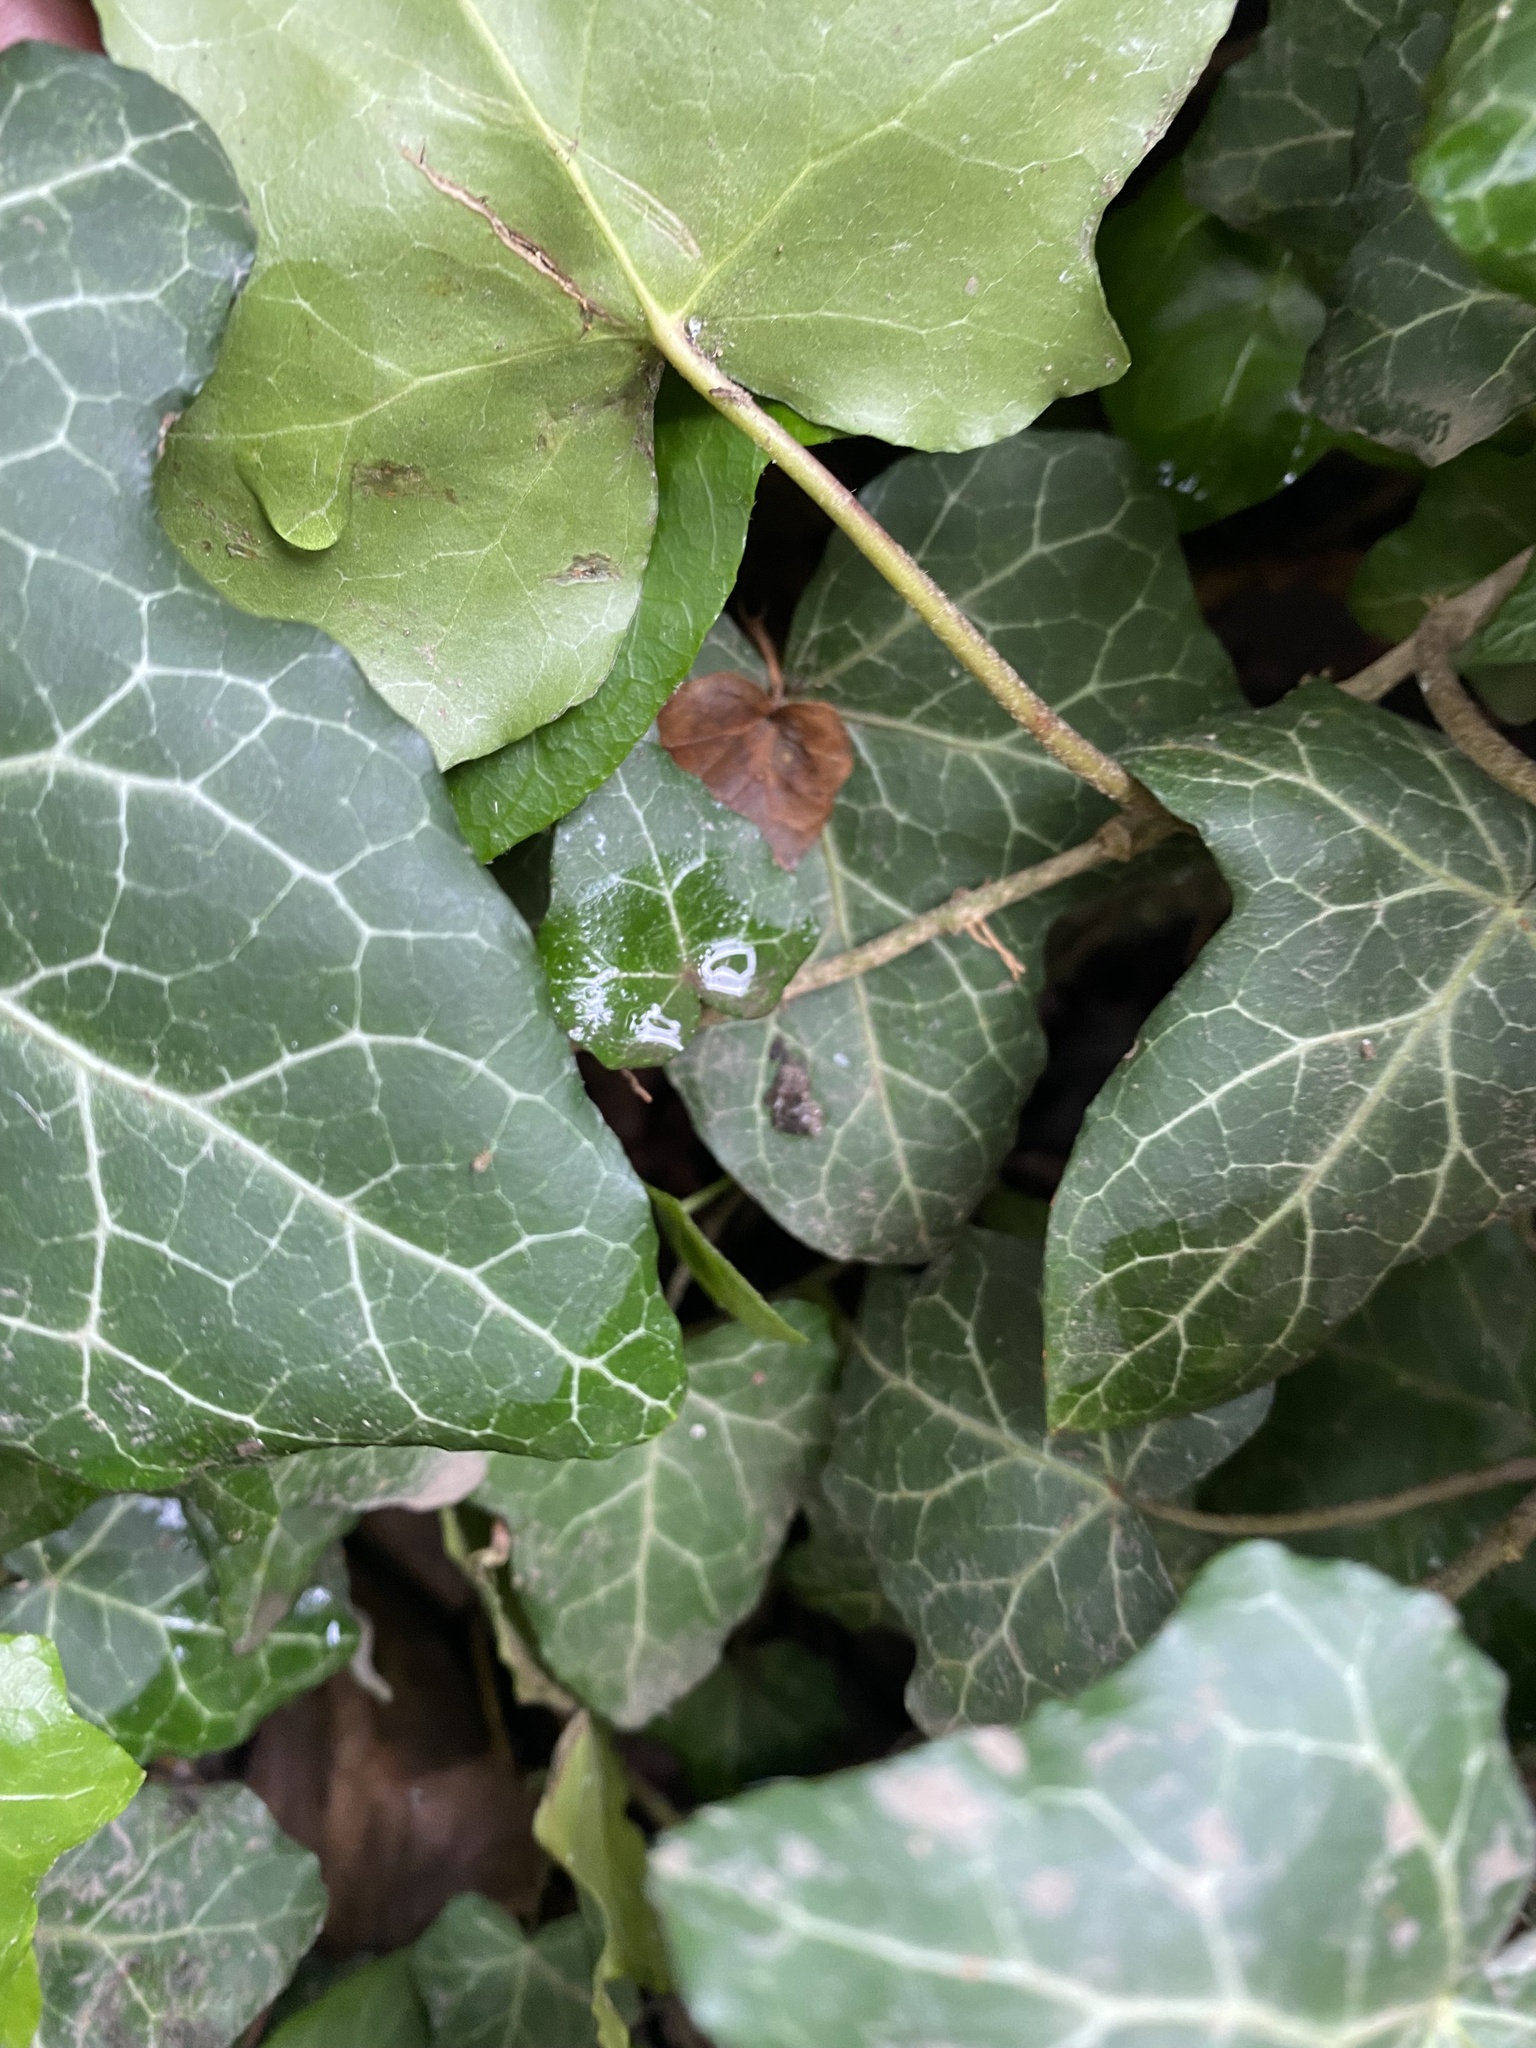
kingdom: Plantae
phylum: Tracheophyta
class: Magnoliopsida
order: Apiales
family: Araliaceae
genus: Hedera
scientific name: Hedera helix
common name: Ivy
